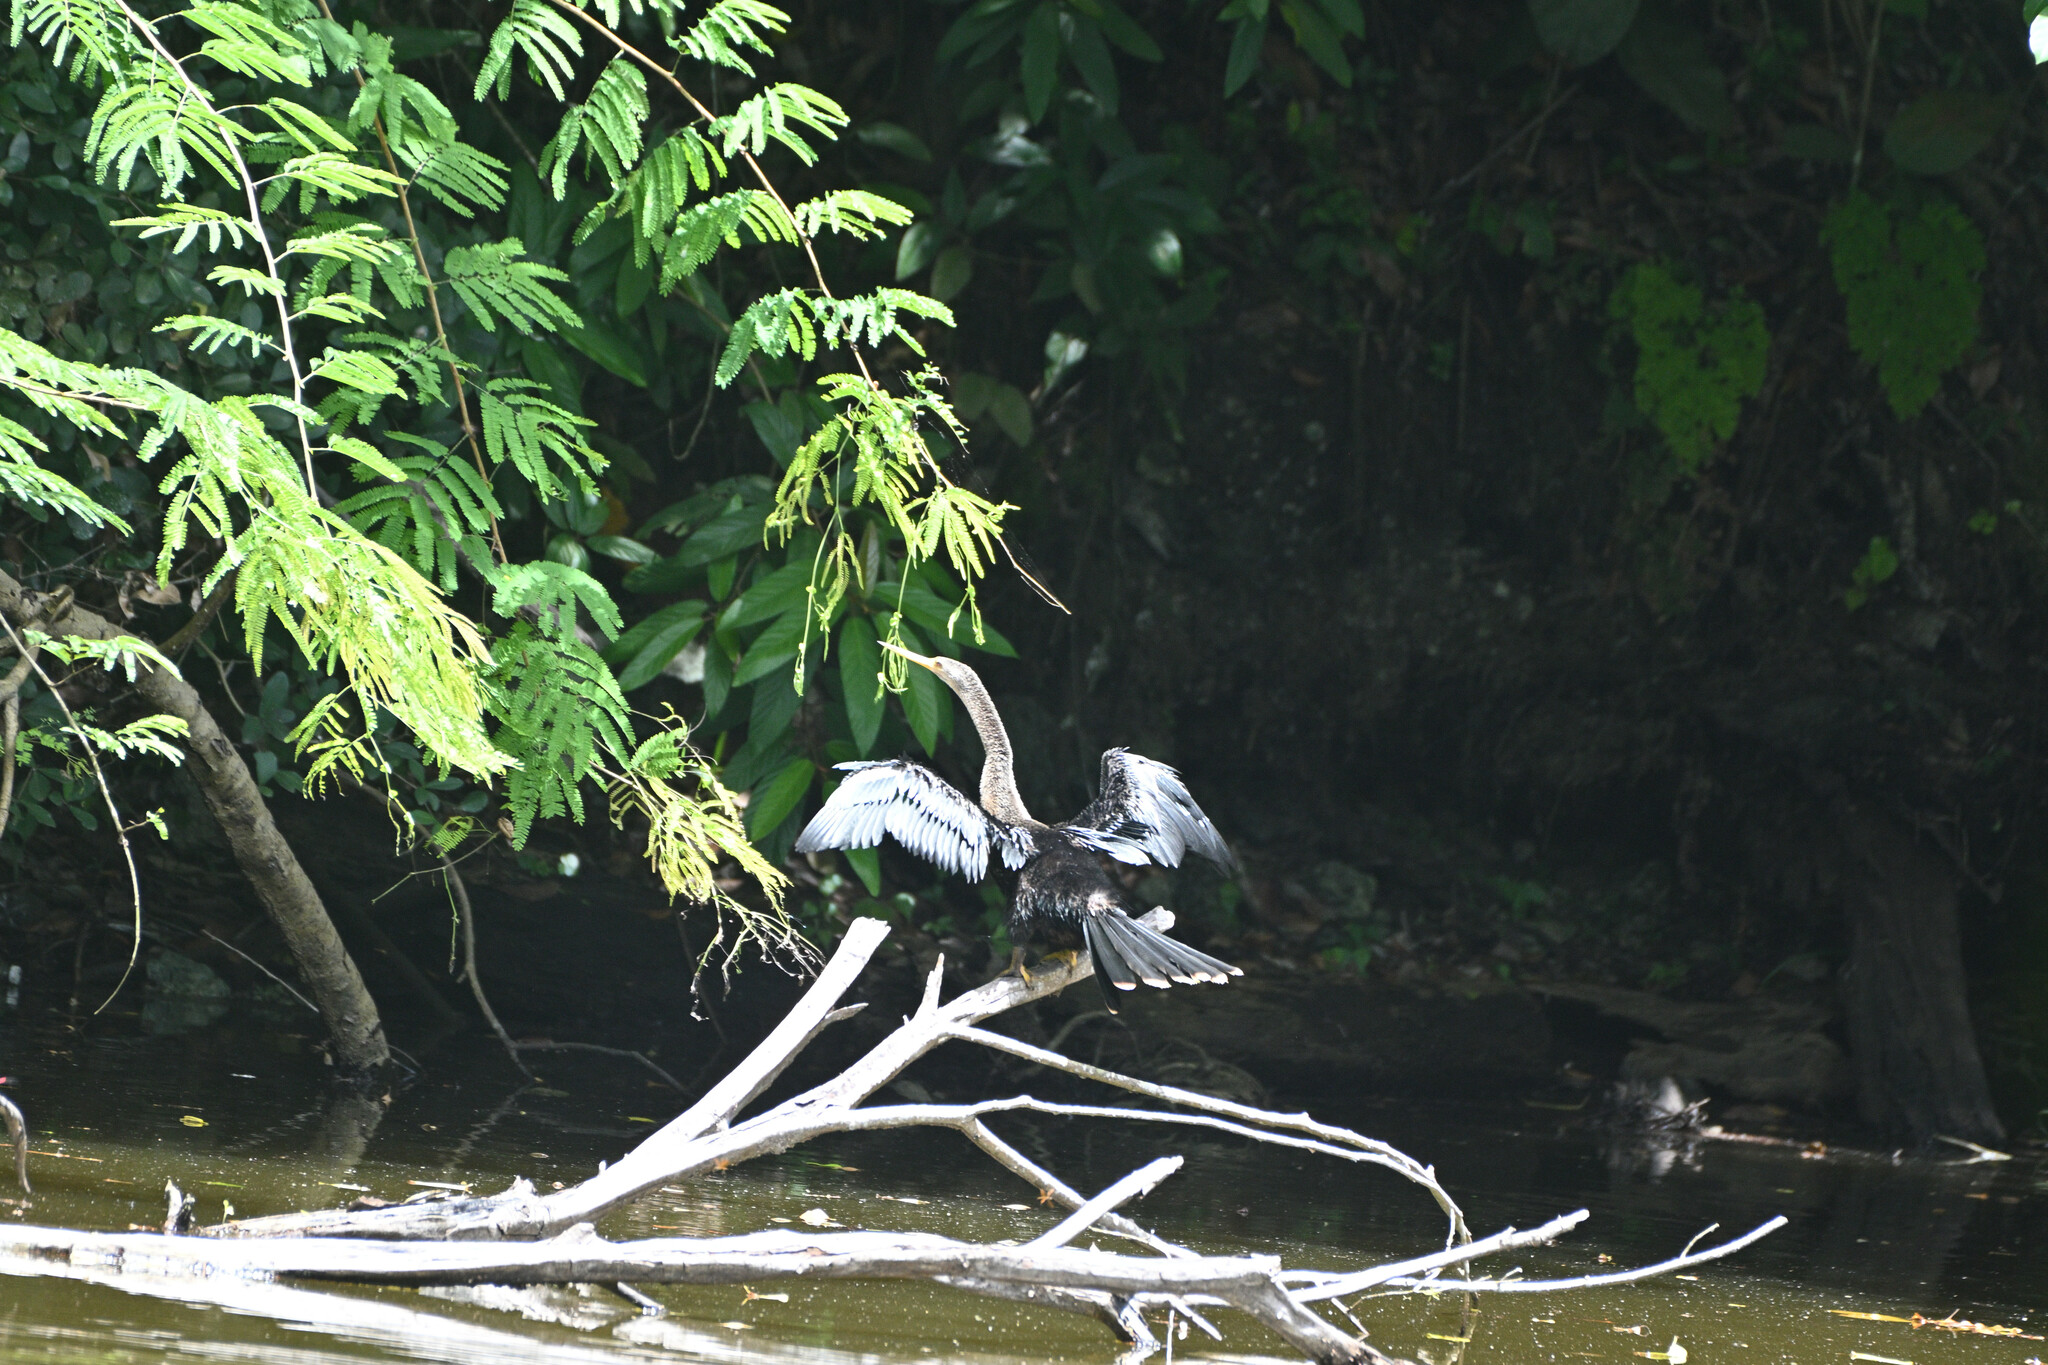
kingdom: Animalia
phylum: Chordata
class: Aves
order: Suliformes
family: Anhingidae
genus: Anhinga
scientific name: Anhinga anhinga
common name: Anhinga
